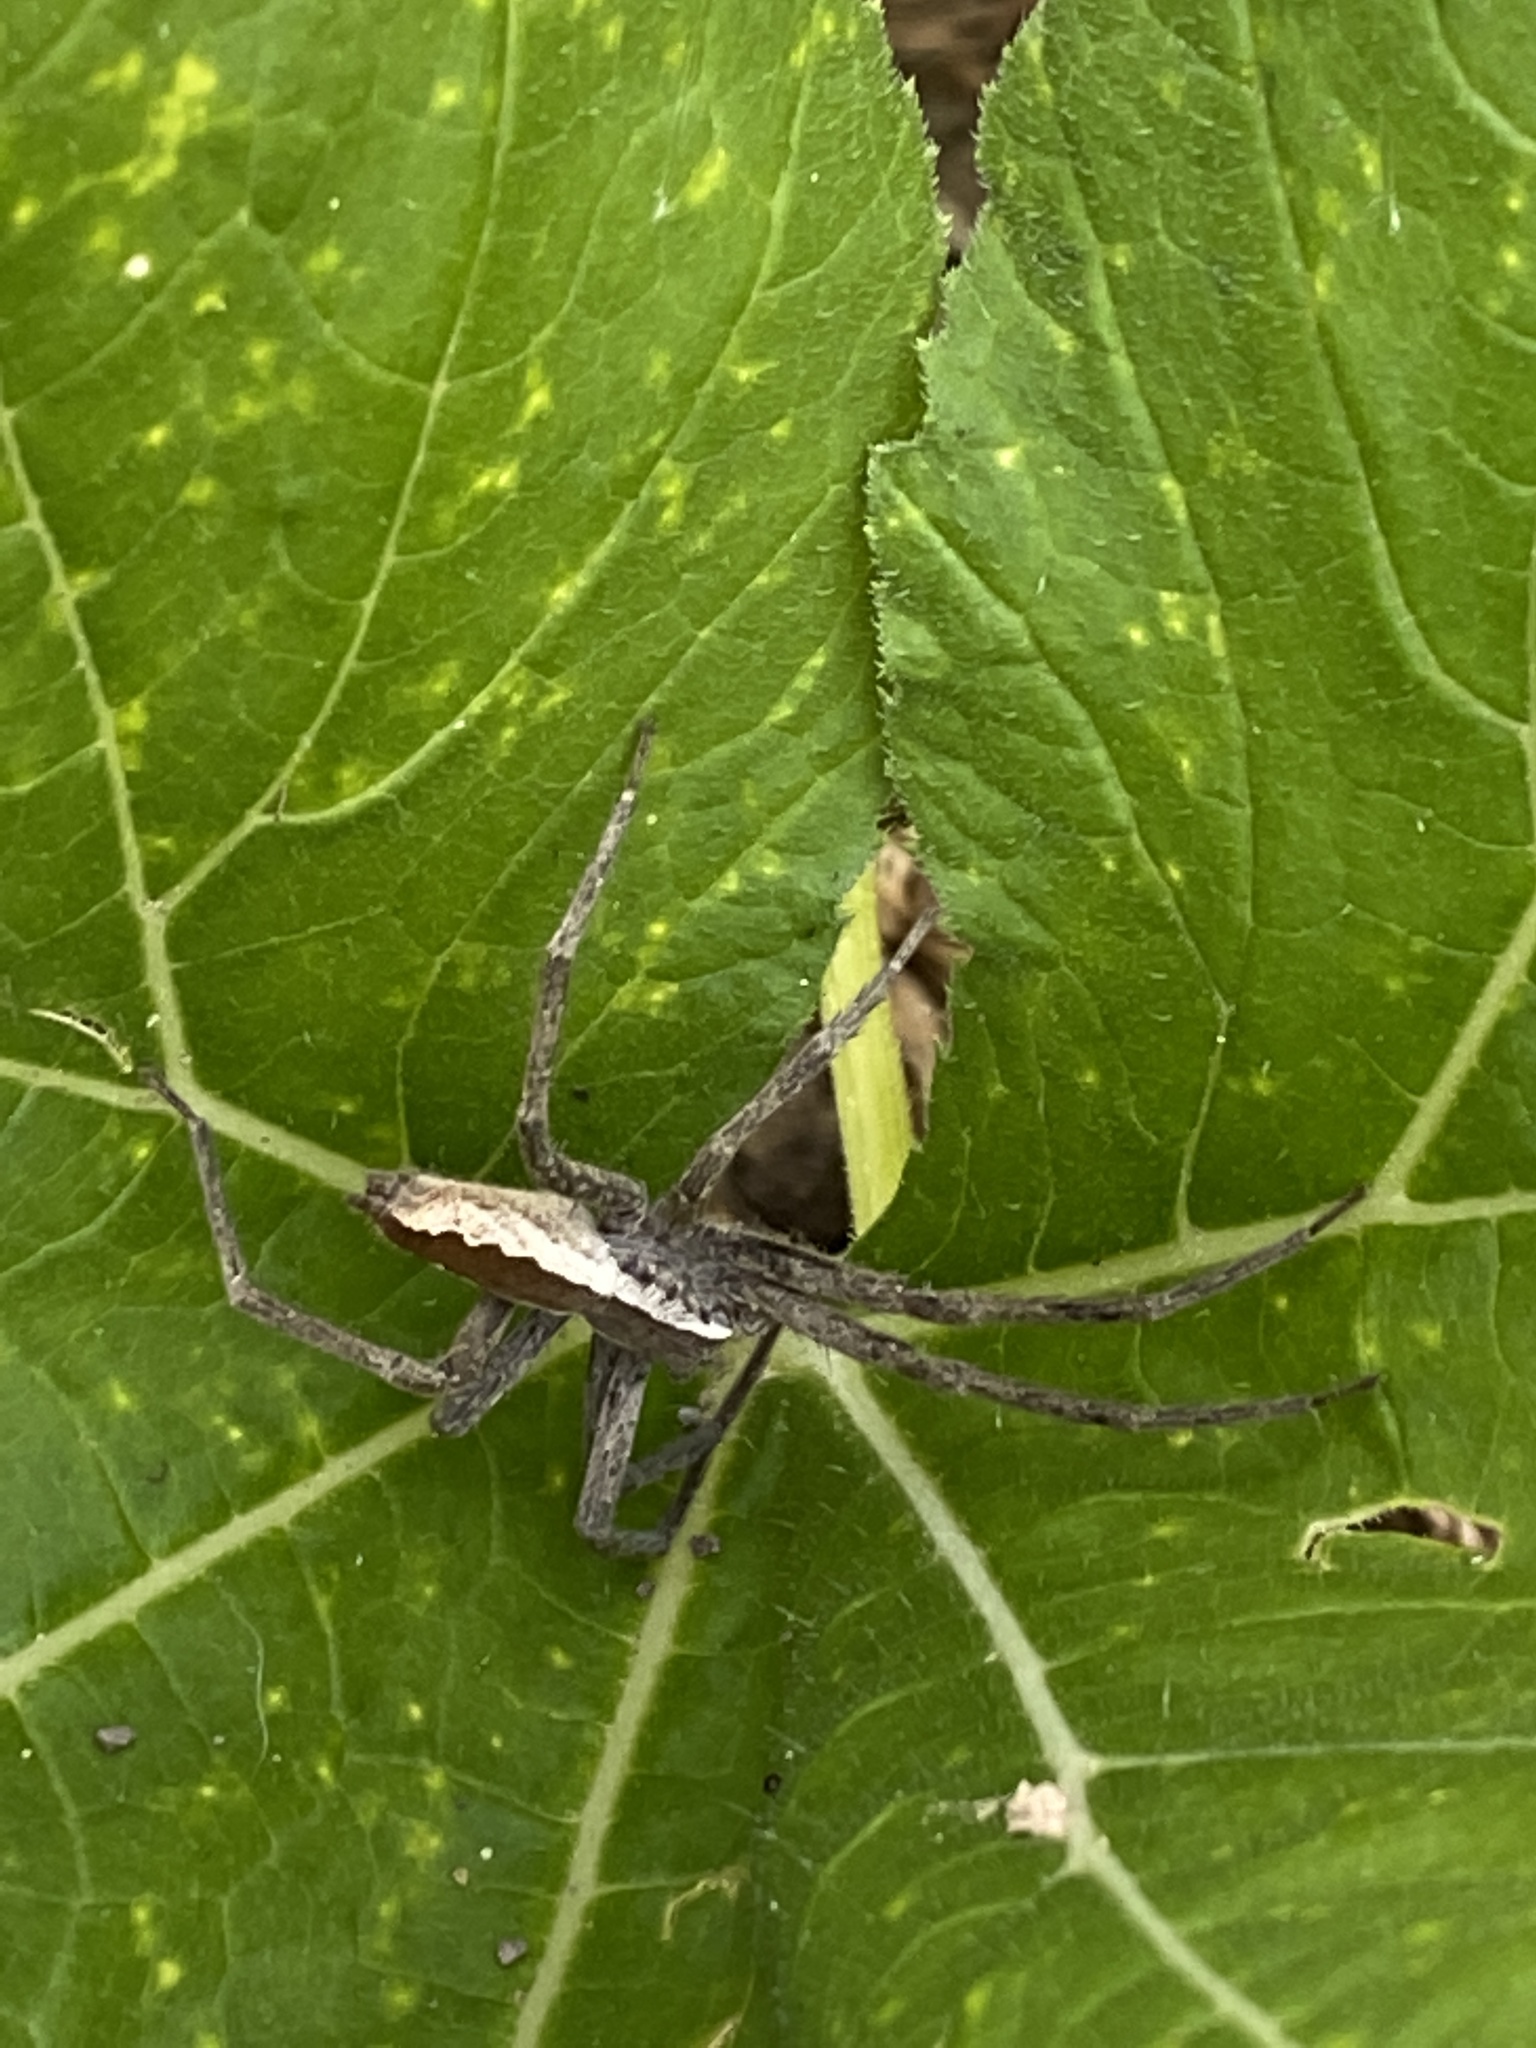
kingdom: Animalia
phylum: Arthropoda
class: Arachnida
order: Araneae
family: Pisauridae
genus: Pisaurina
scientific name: Pisaurina mira
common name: American nursery web spider
